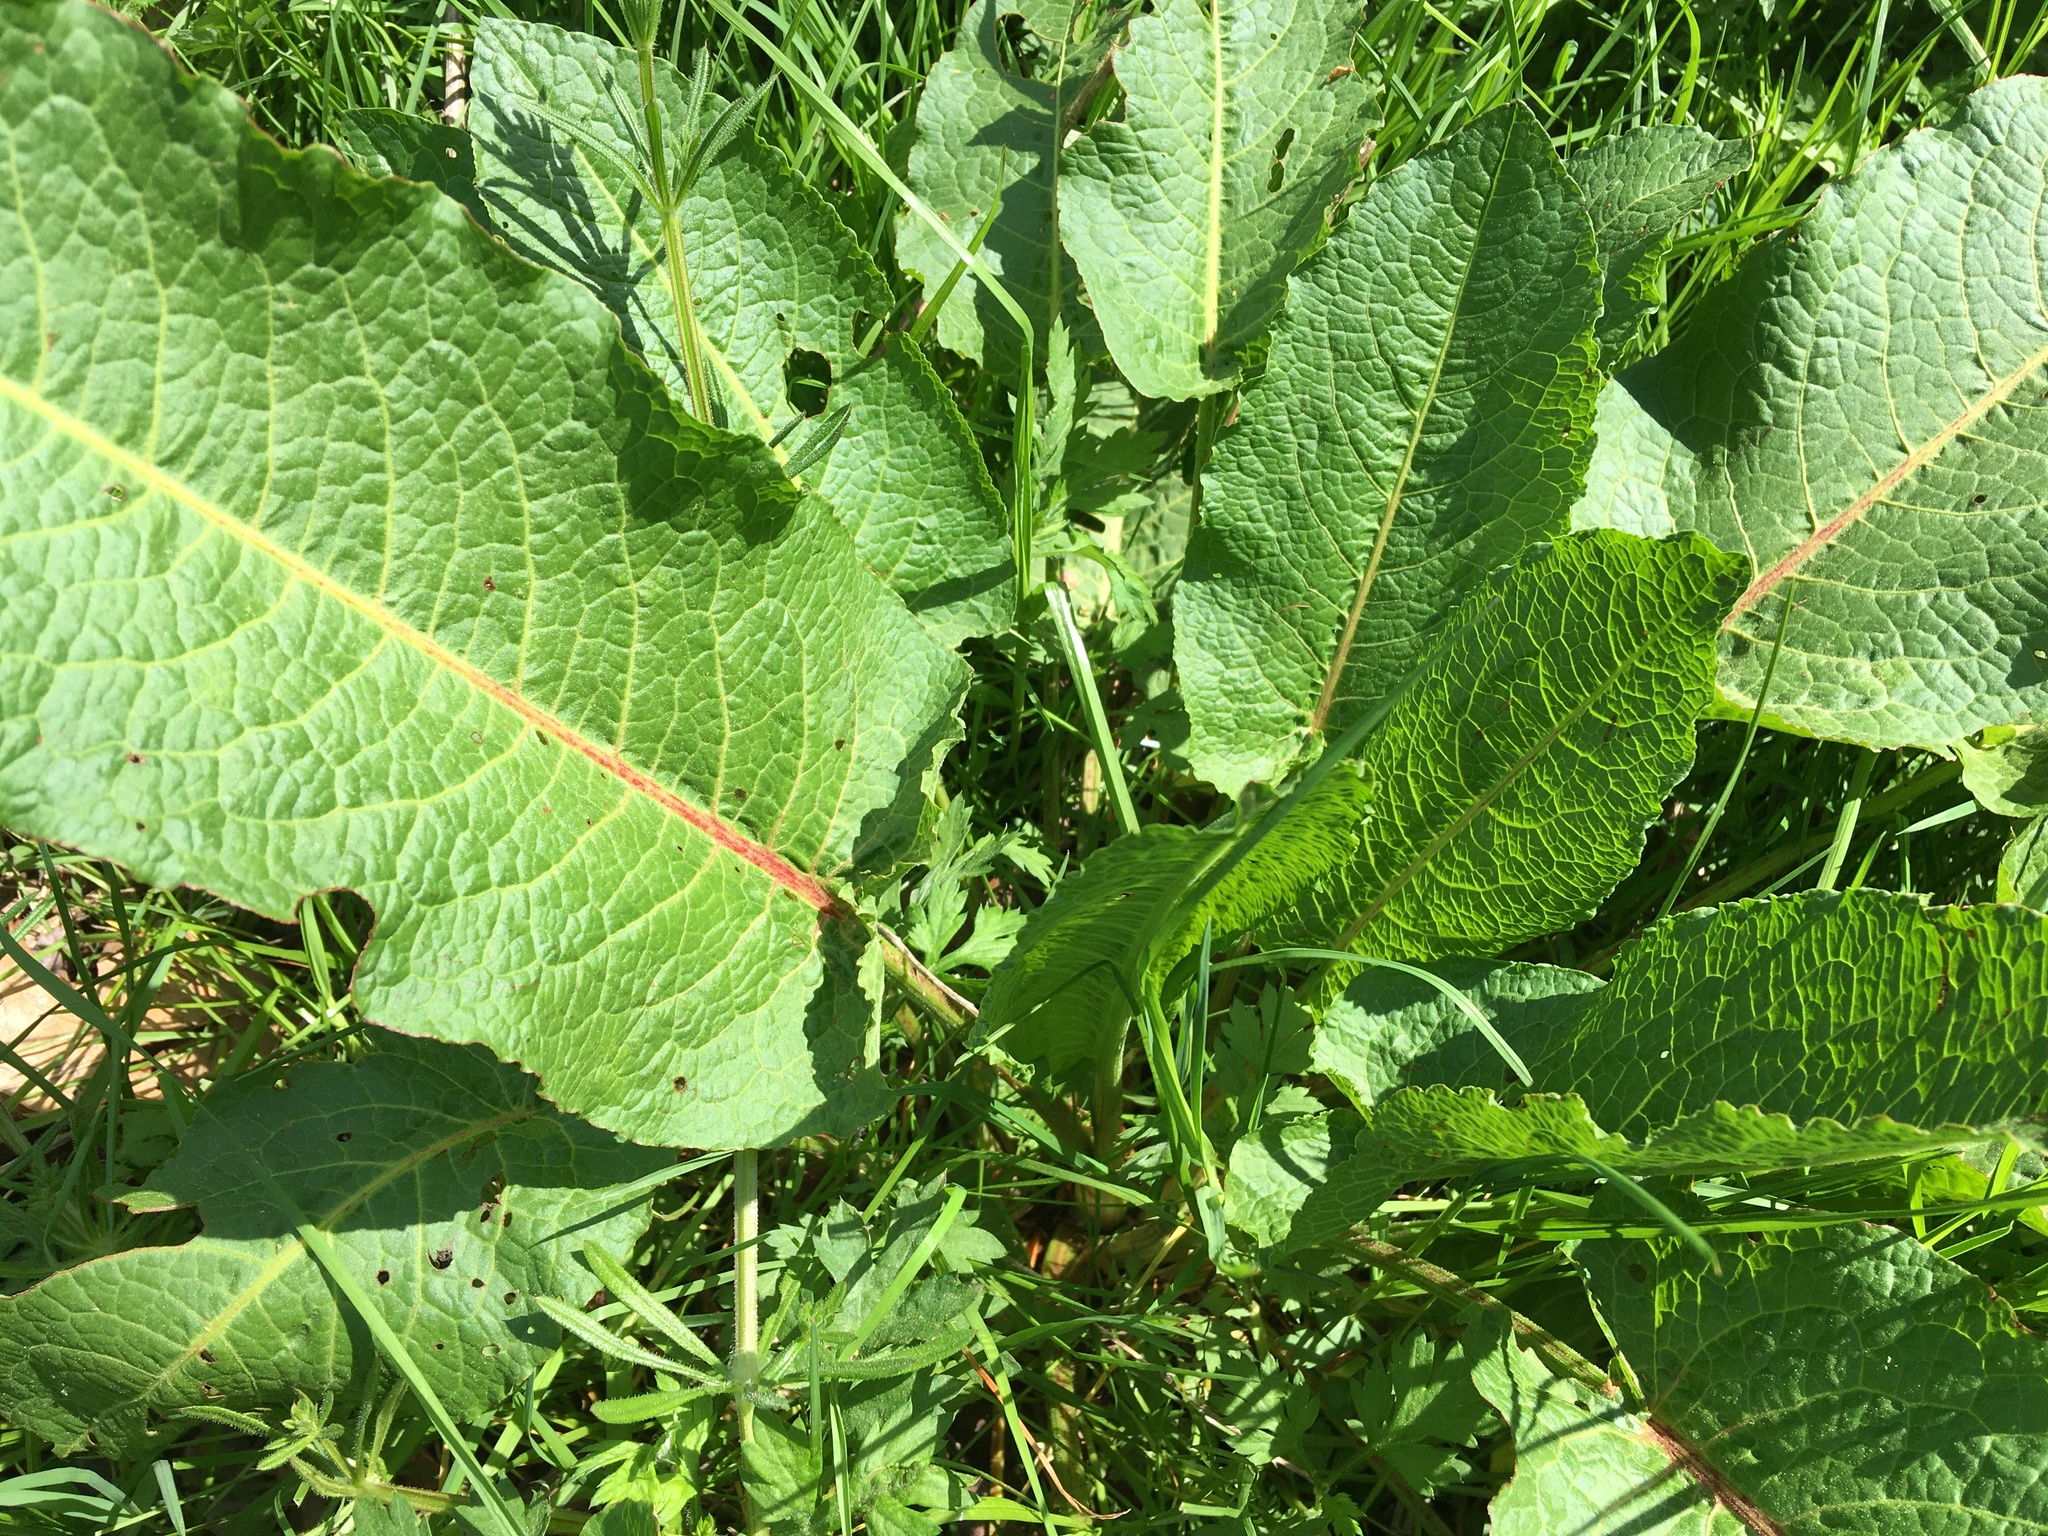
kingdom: Plantae
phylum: Tracheophyta
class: Magnoliopsida
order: Caryophyllales
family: Polygonaceae
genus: Rumex
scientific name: Rumex obtusifolius
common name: Bitter dock
